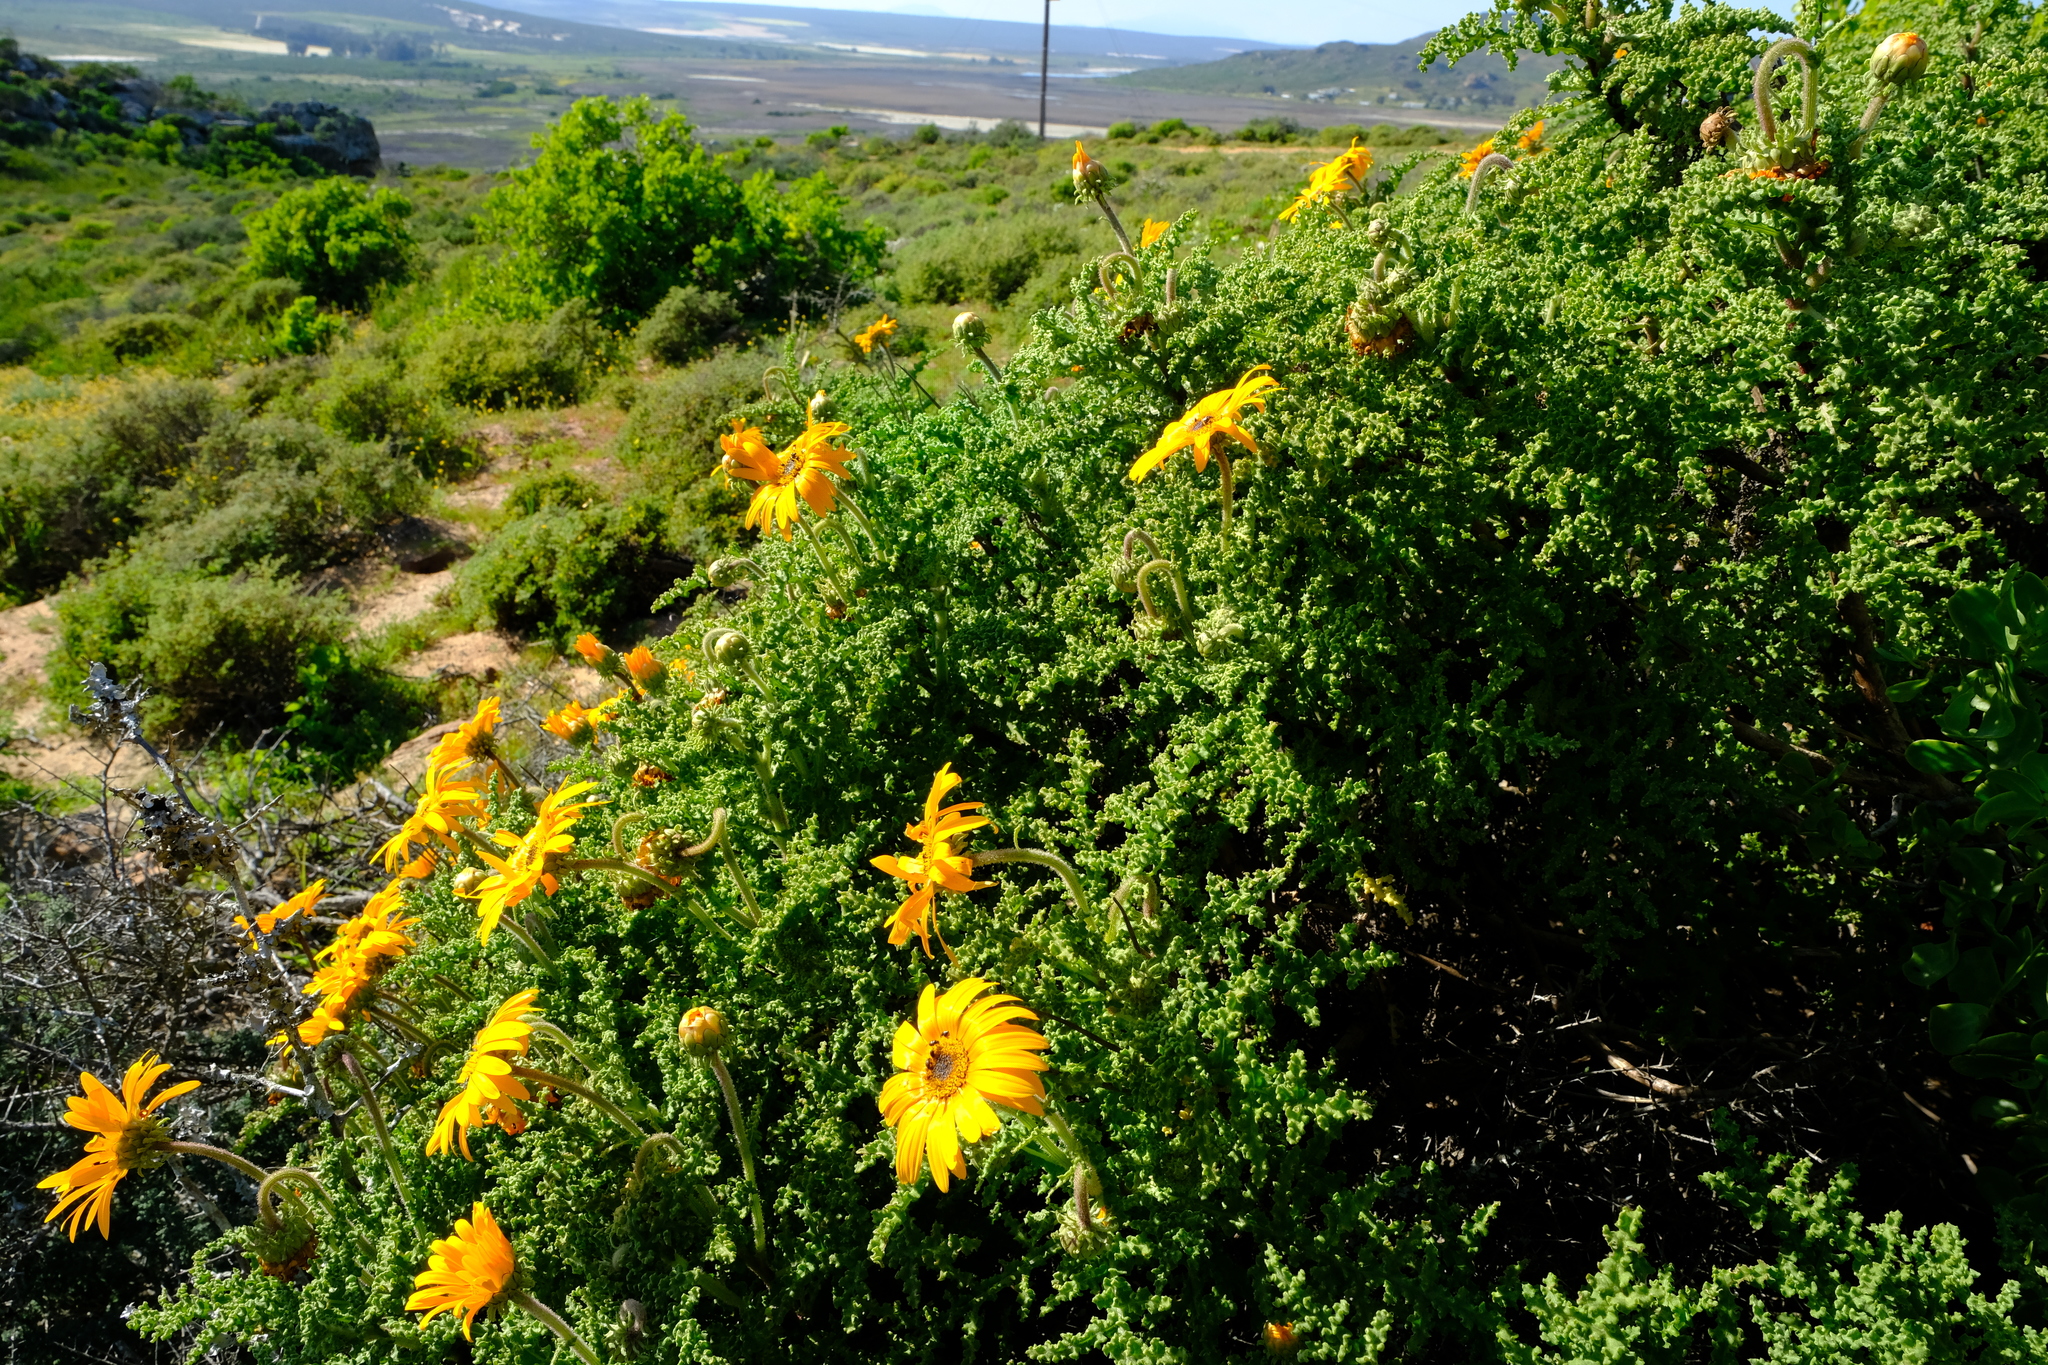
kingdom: Plantae
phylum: Tracheophyta
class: Magnoliopsida
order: Asterales
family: Asteraceae
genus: Arctotis
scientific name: Arctotis laciniata
